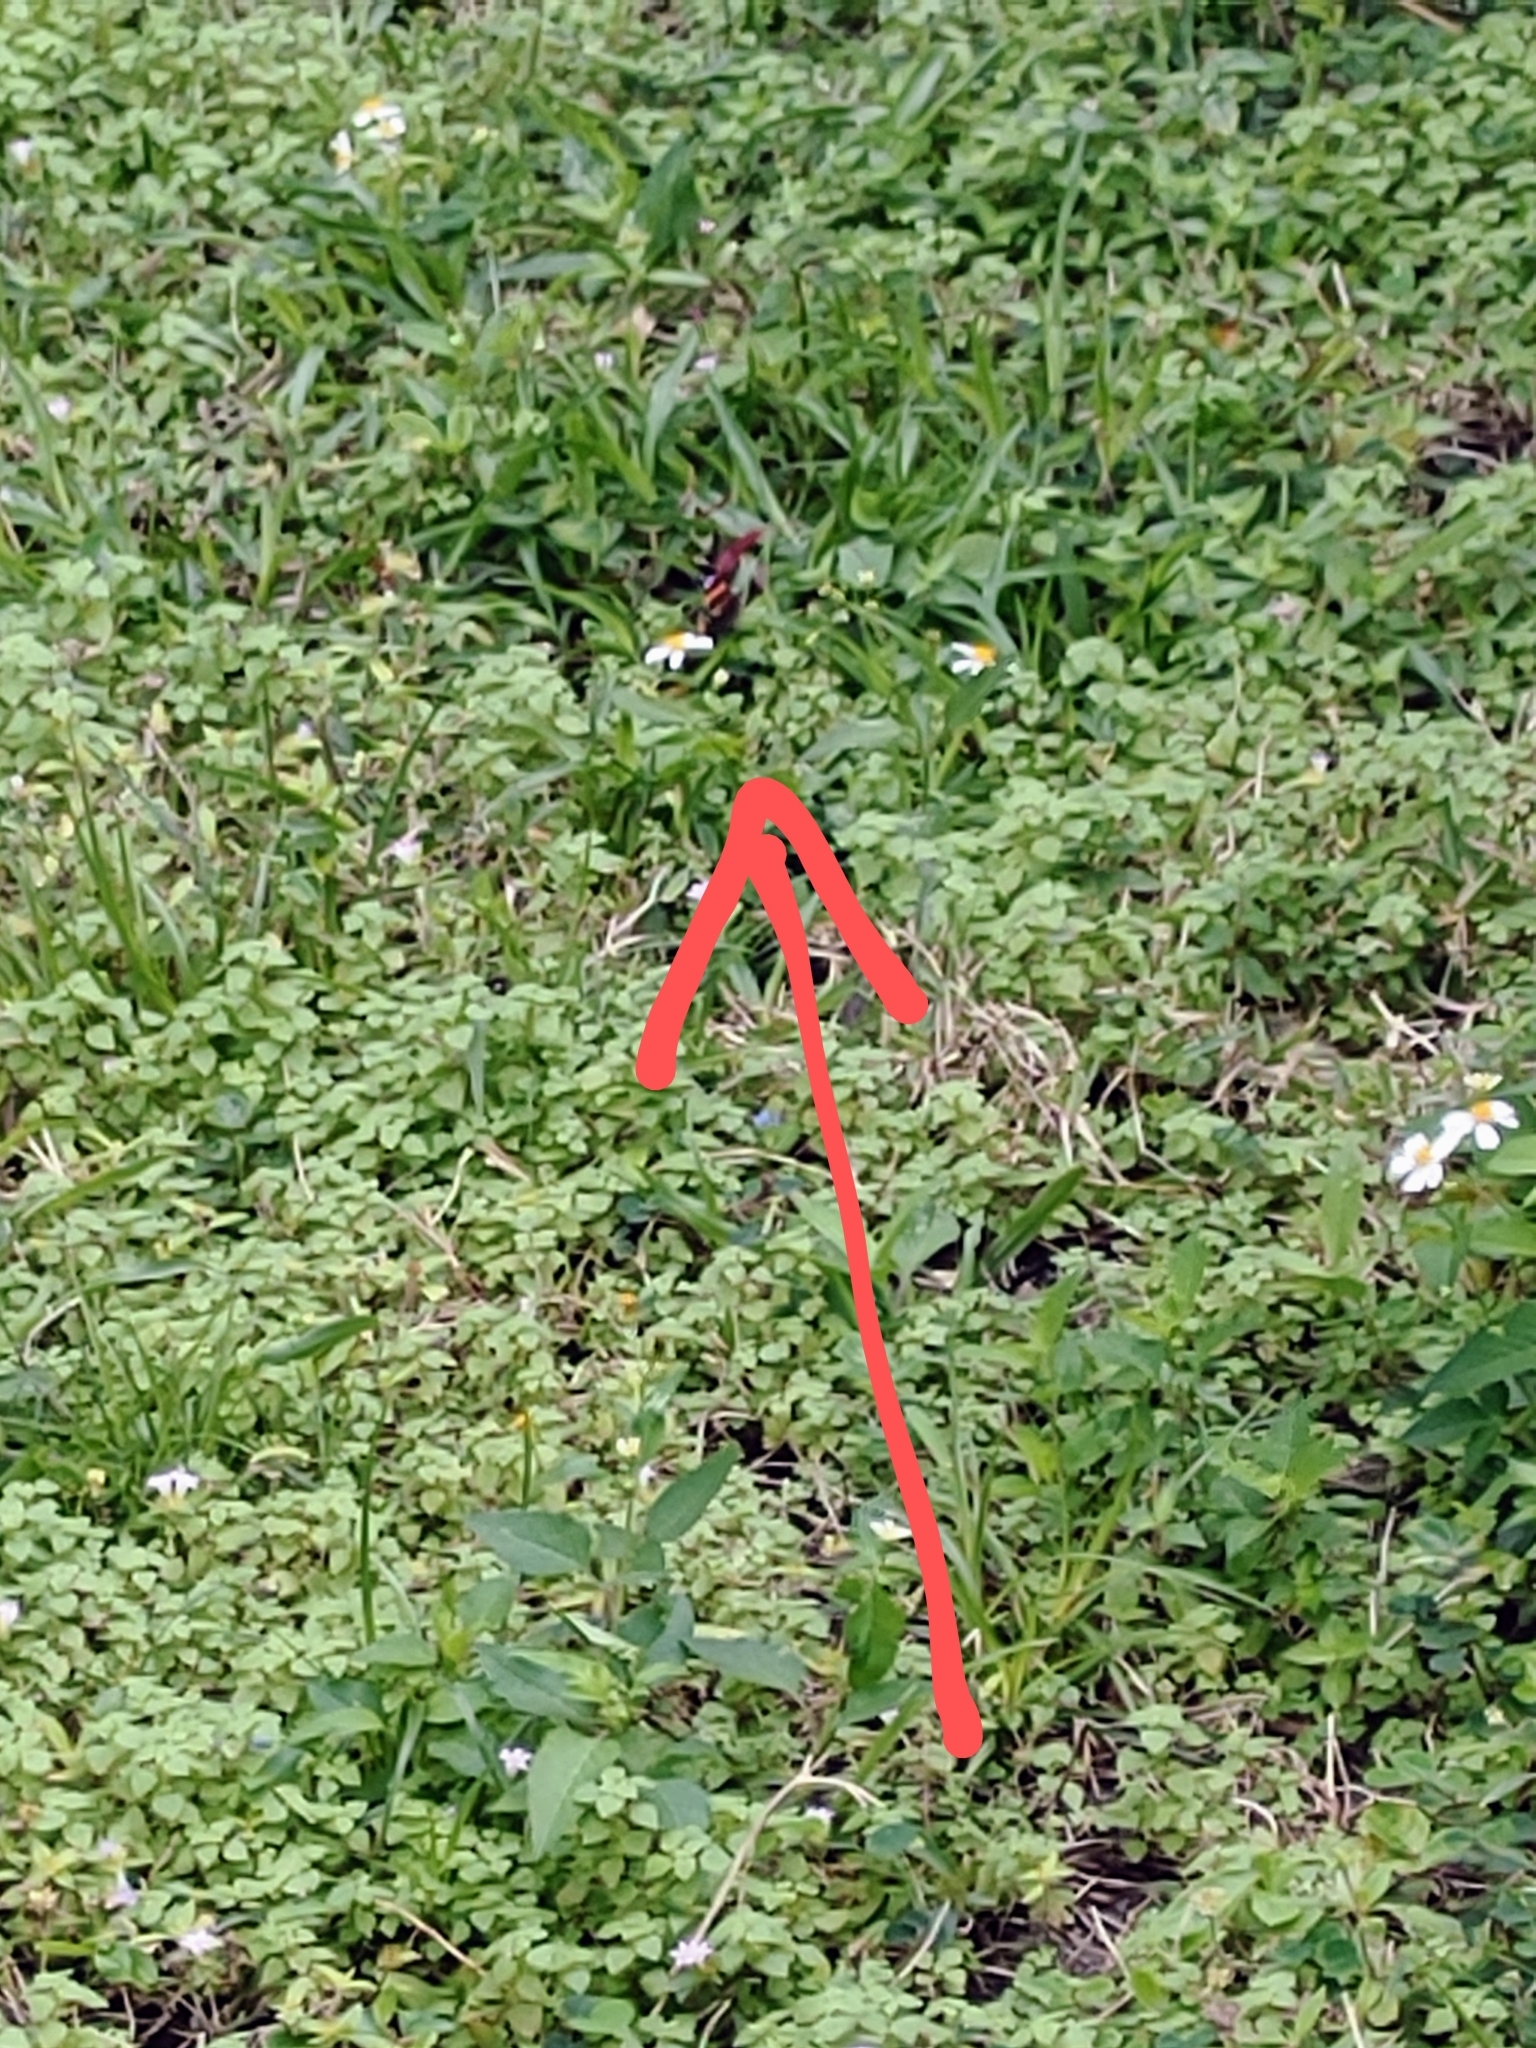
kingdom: Animalia
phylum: Arthropoda
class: Insecta
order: Lepidoptera
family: Nymphalidae
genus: Vanessa
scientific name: Vanessa atalanta
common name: Red admiral
